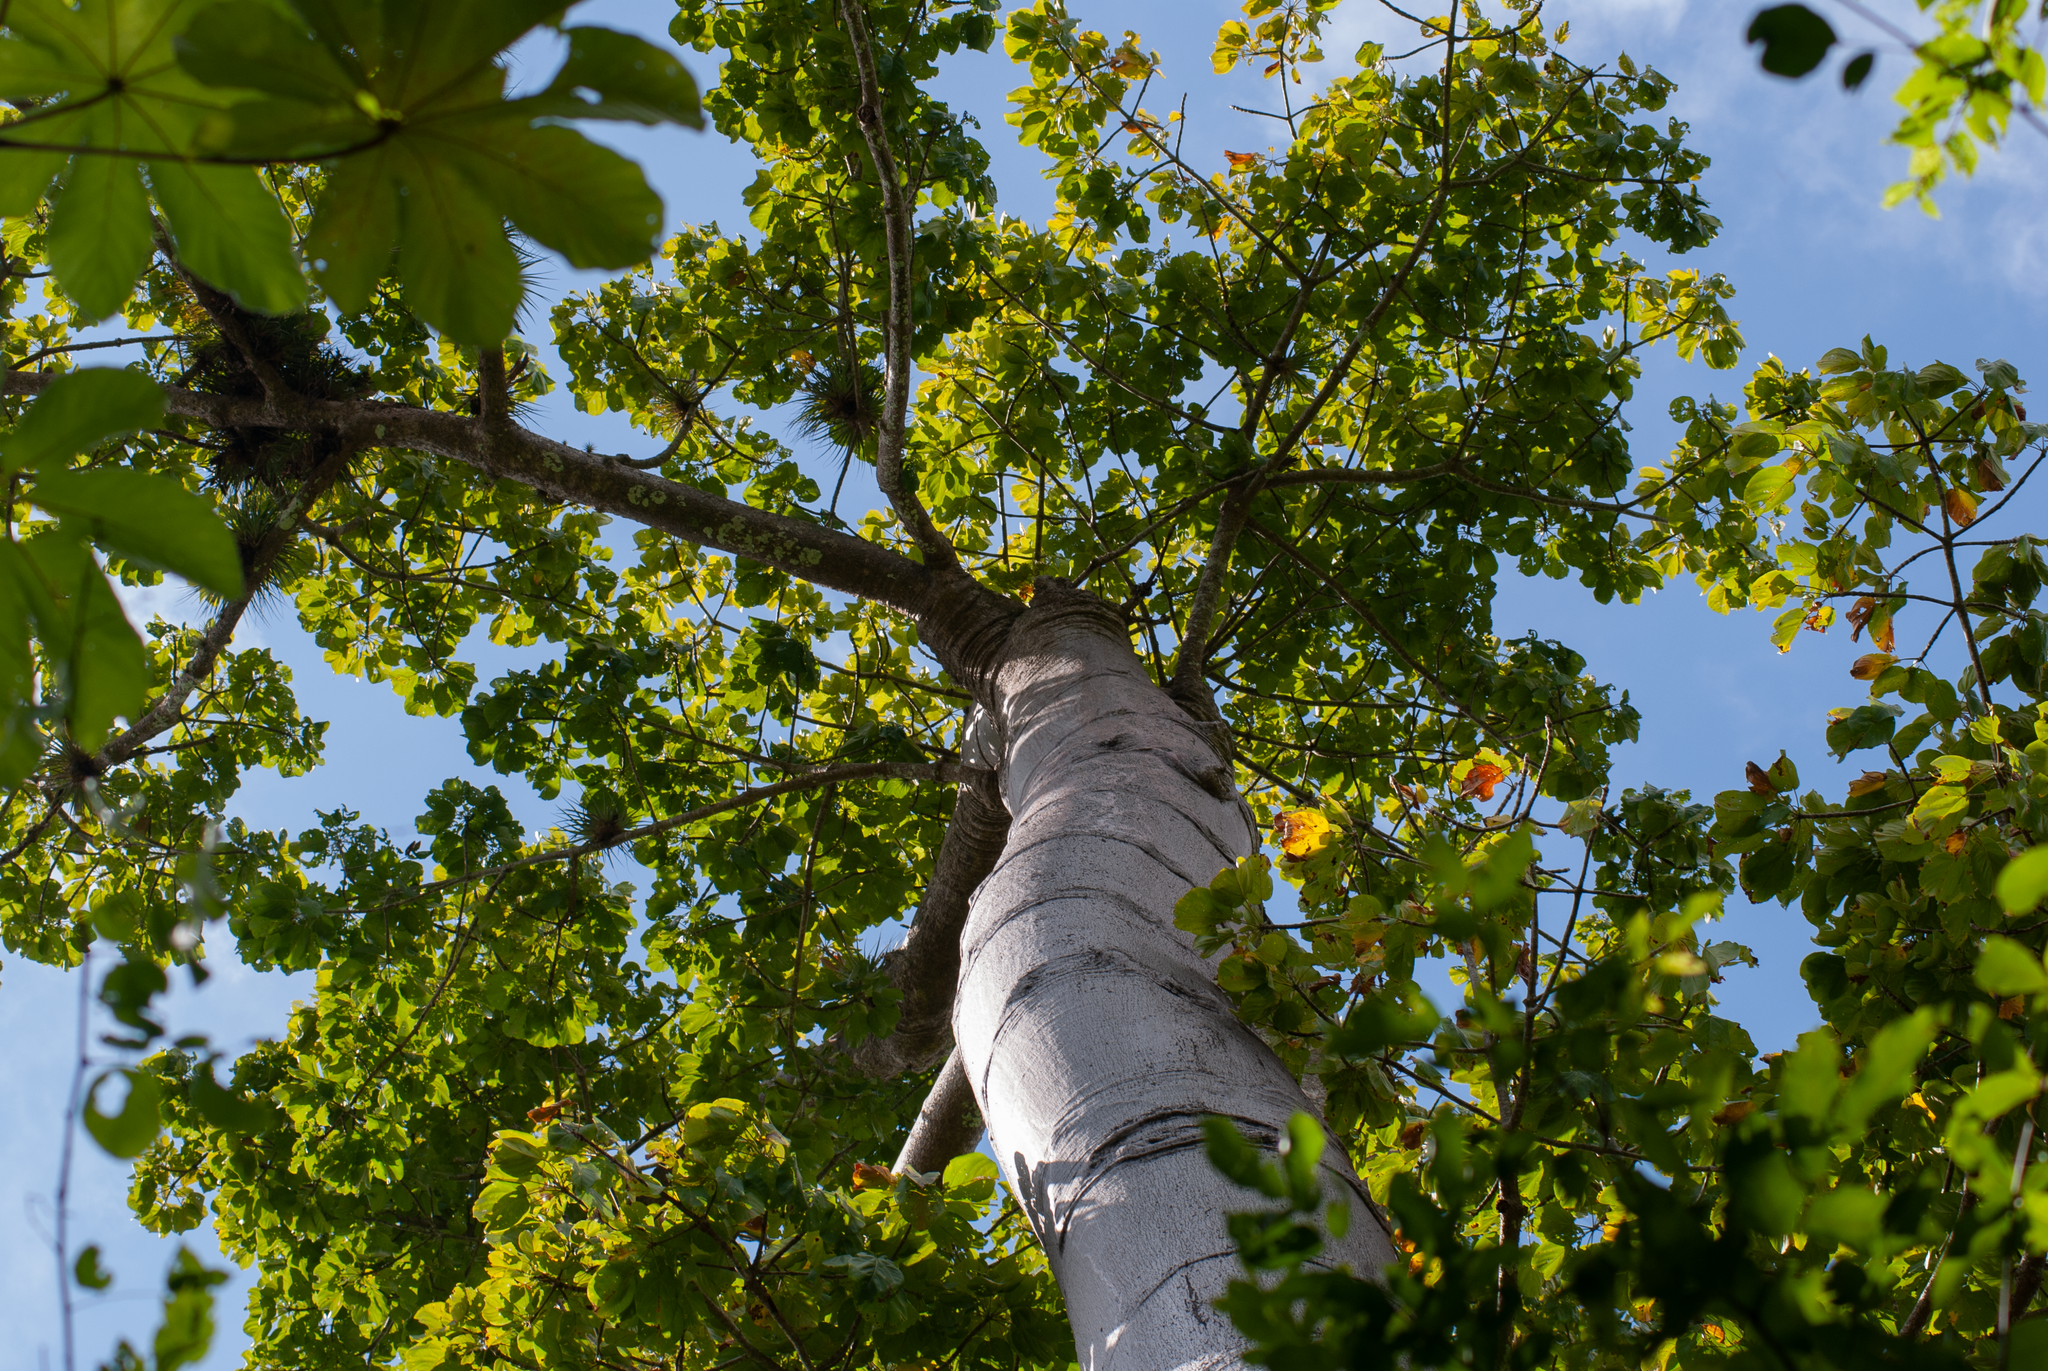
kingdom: Plantae
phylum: Tracheophyta
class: Magnoliopsida
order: Malvales
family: Malvaceae
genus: Ochroma
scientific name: Ochroma pyramidale
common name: Balsa
